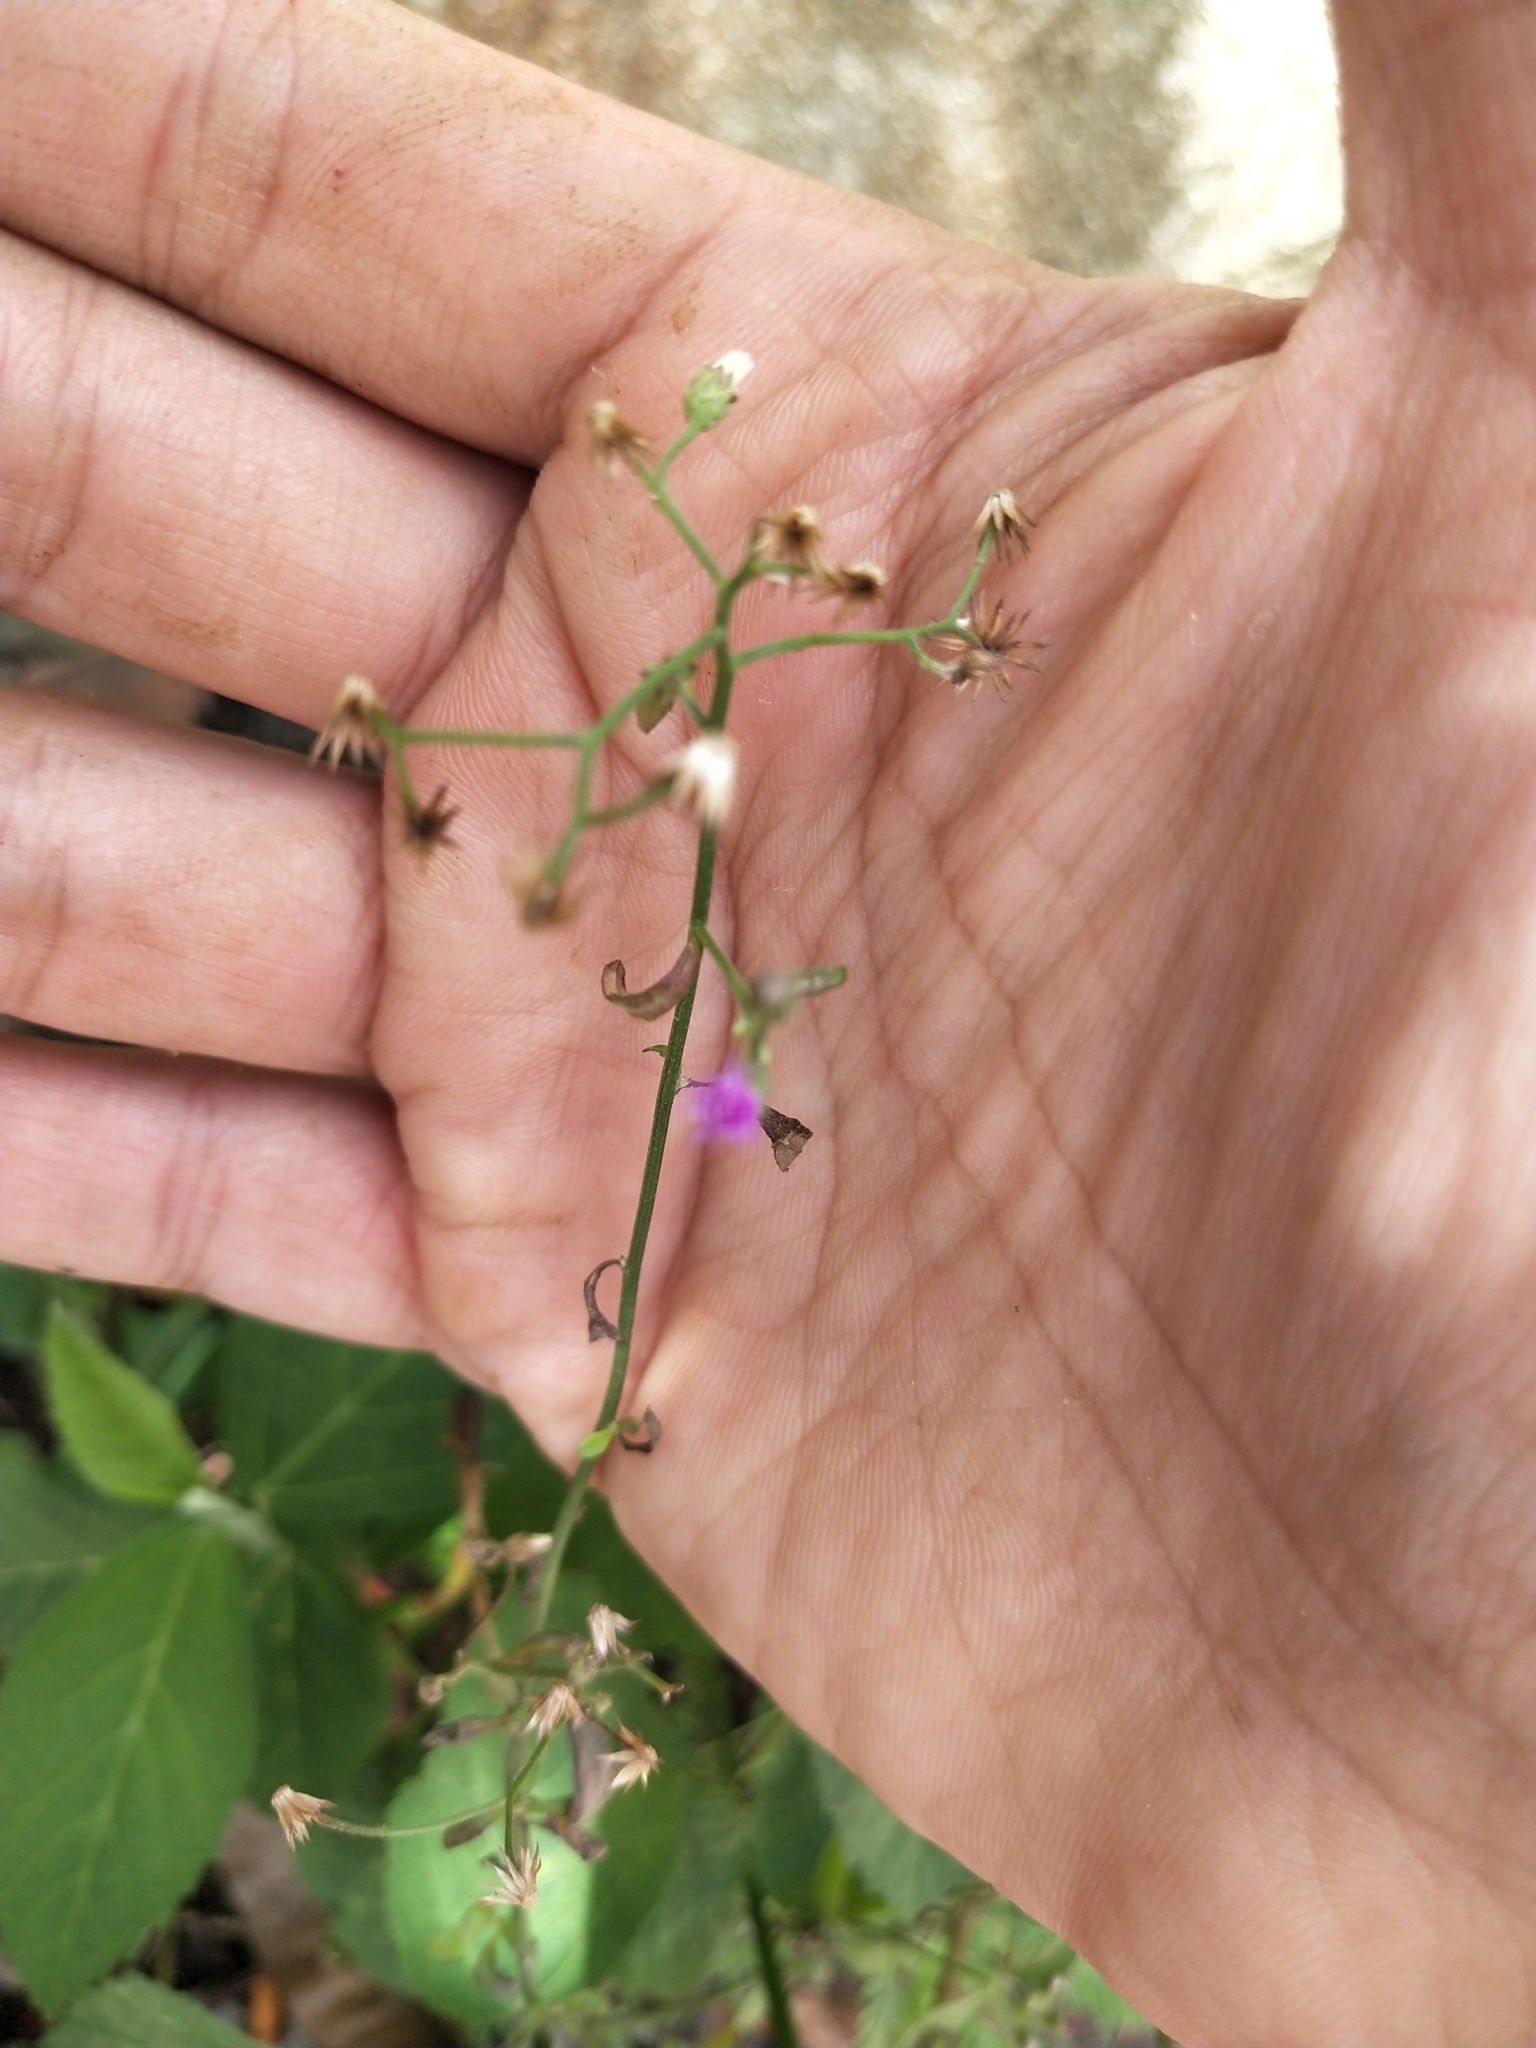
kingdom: Plantae
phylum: Tracheophyta
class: Magnoliopsida
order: Asterales
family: Asteraceae
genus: Cyanthillium
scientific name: Cyanthillium cinereum
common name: Little ironweed
